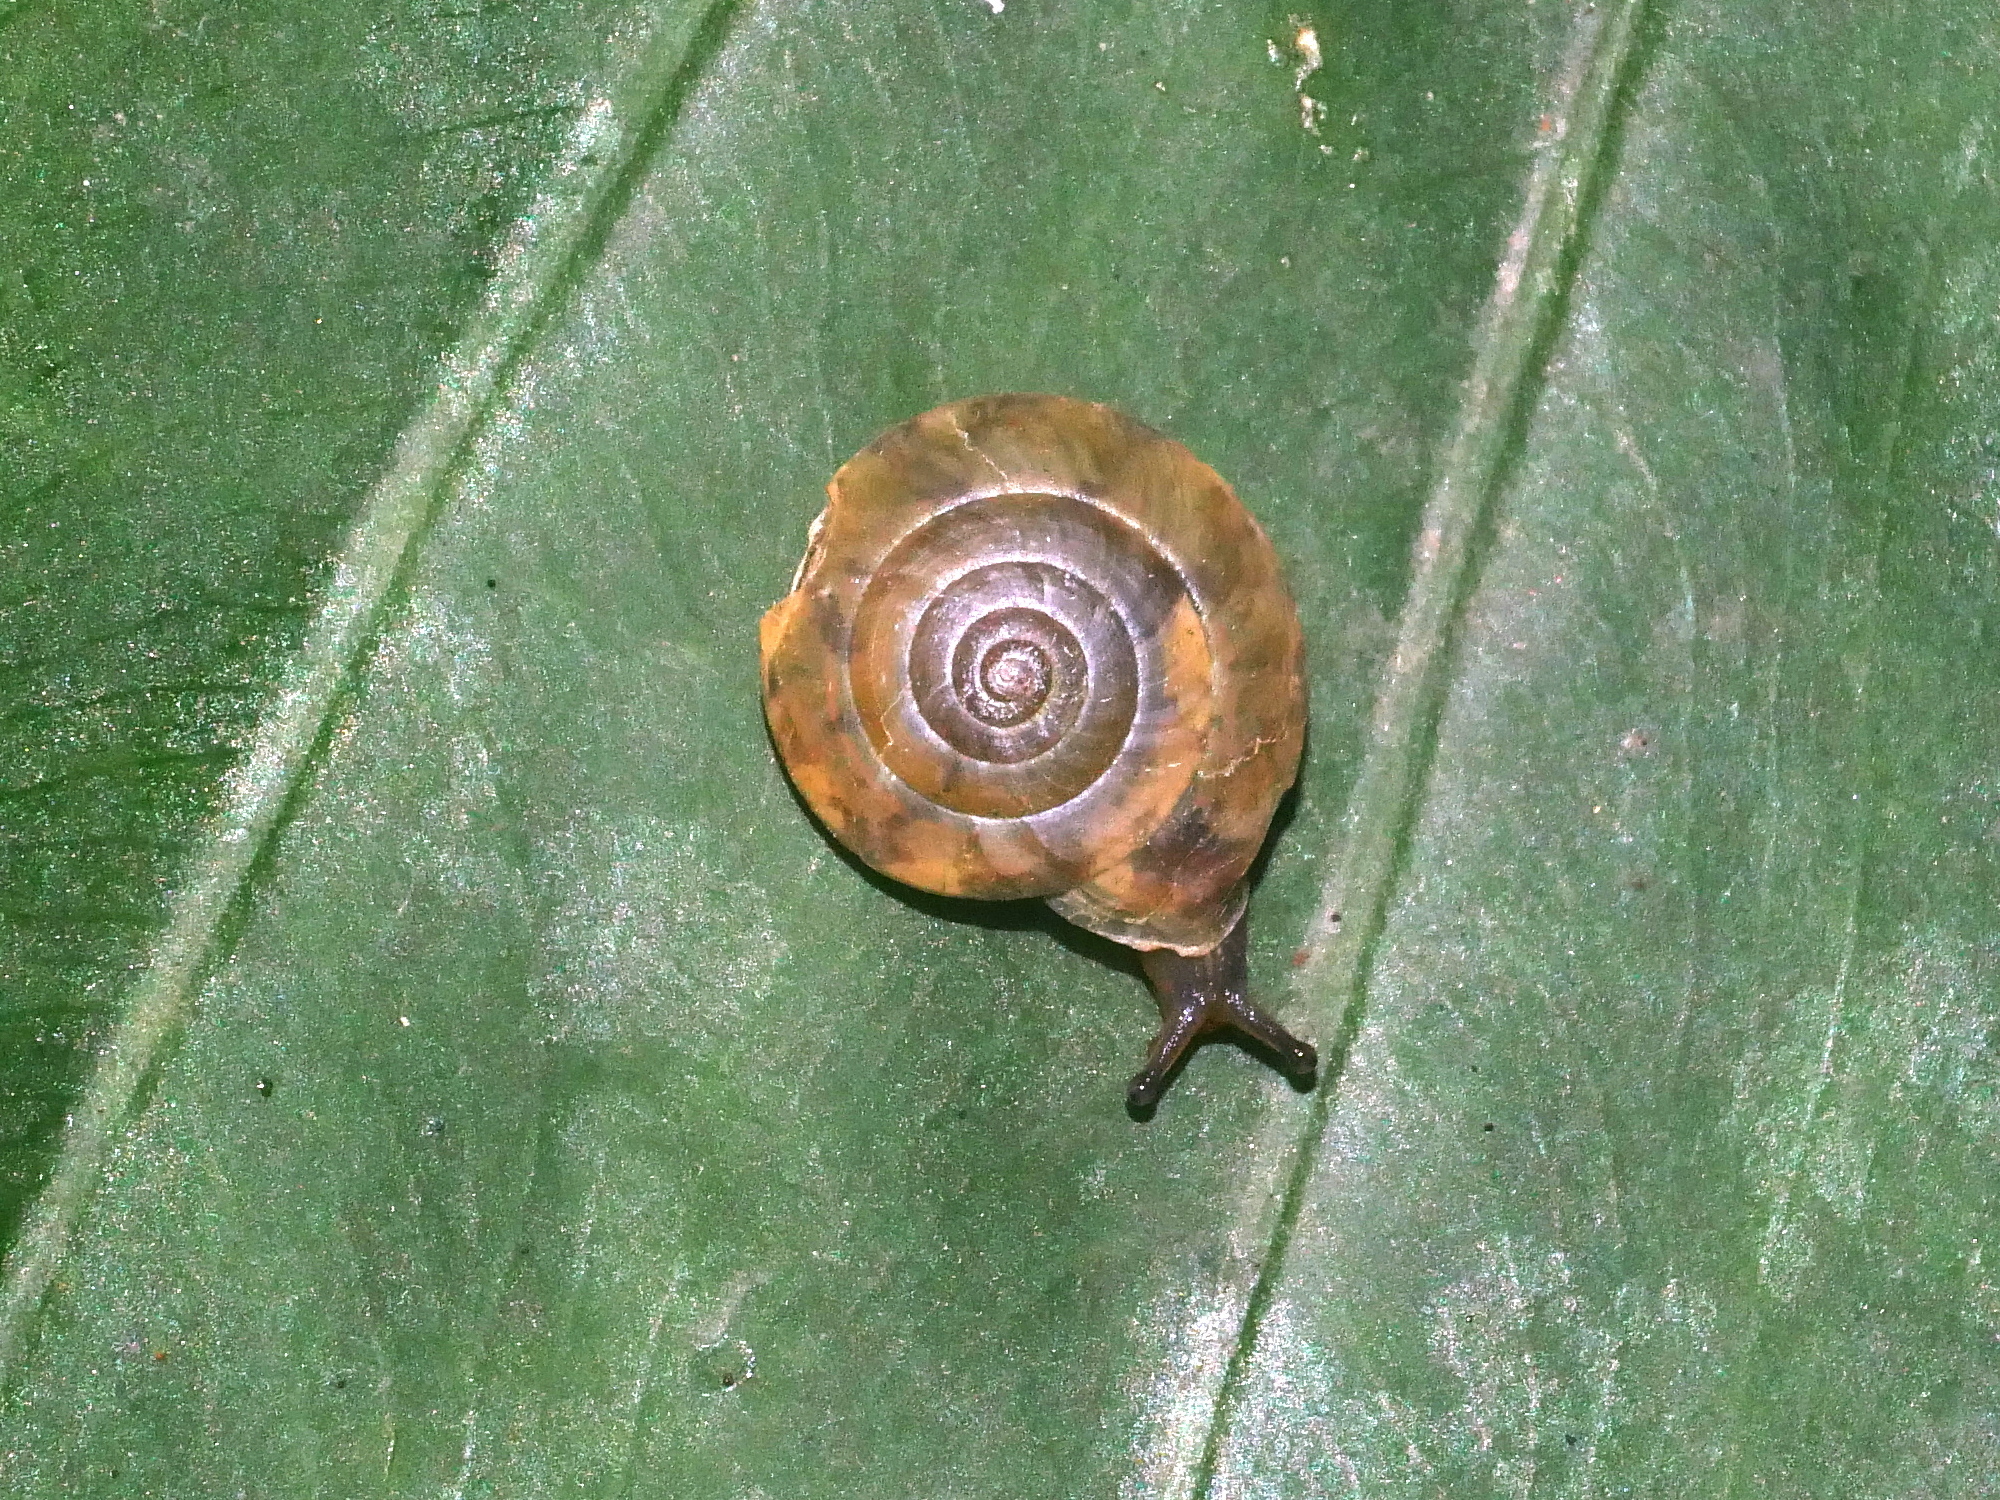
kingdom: Animalia
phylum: Mollusca
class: Gastropoda
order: Stylommatophora
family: Camaenidae
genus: Aegista
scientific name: Aegista lautsi
